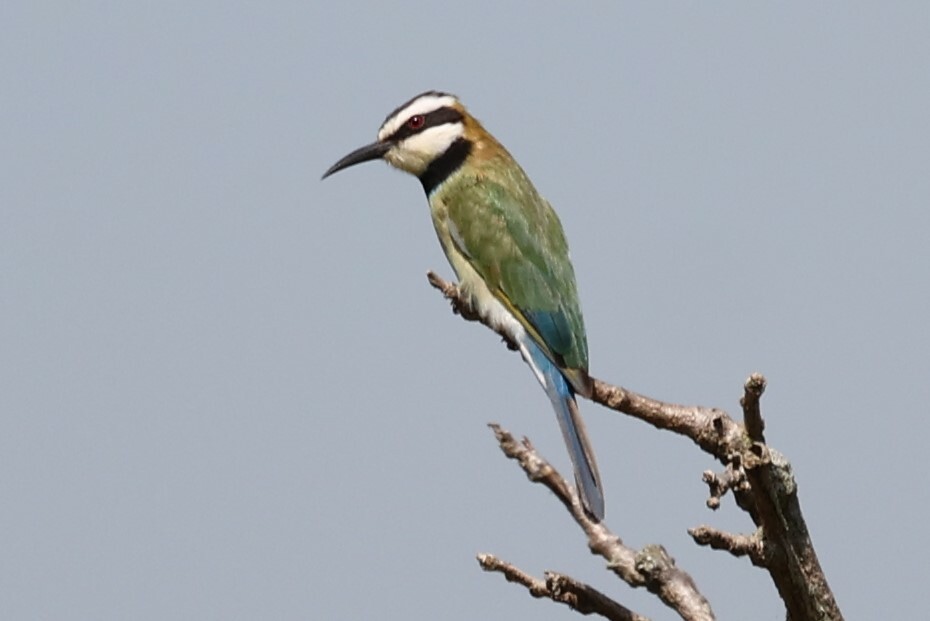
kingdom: Animalia
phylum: Chordata
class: Aves
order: Coraciiformes
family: Meropidae
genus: Merops
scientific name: Merops albicollis
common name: White-throated bee-eater
